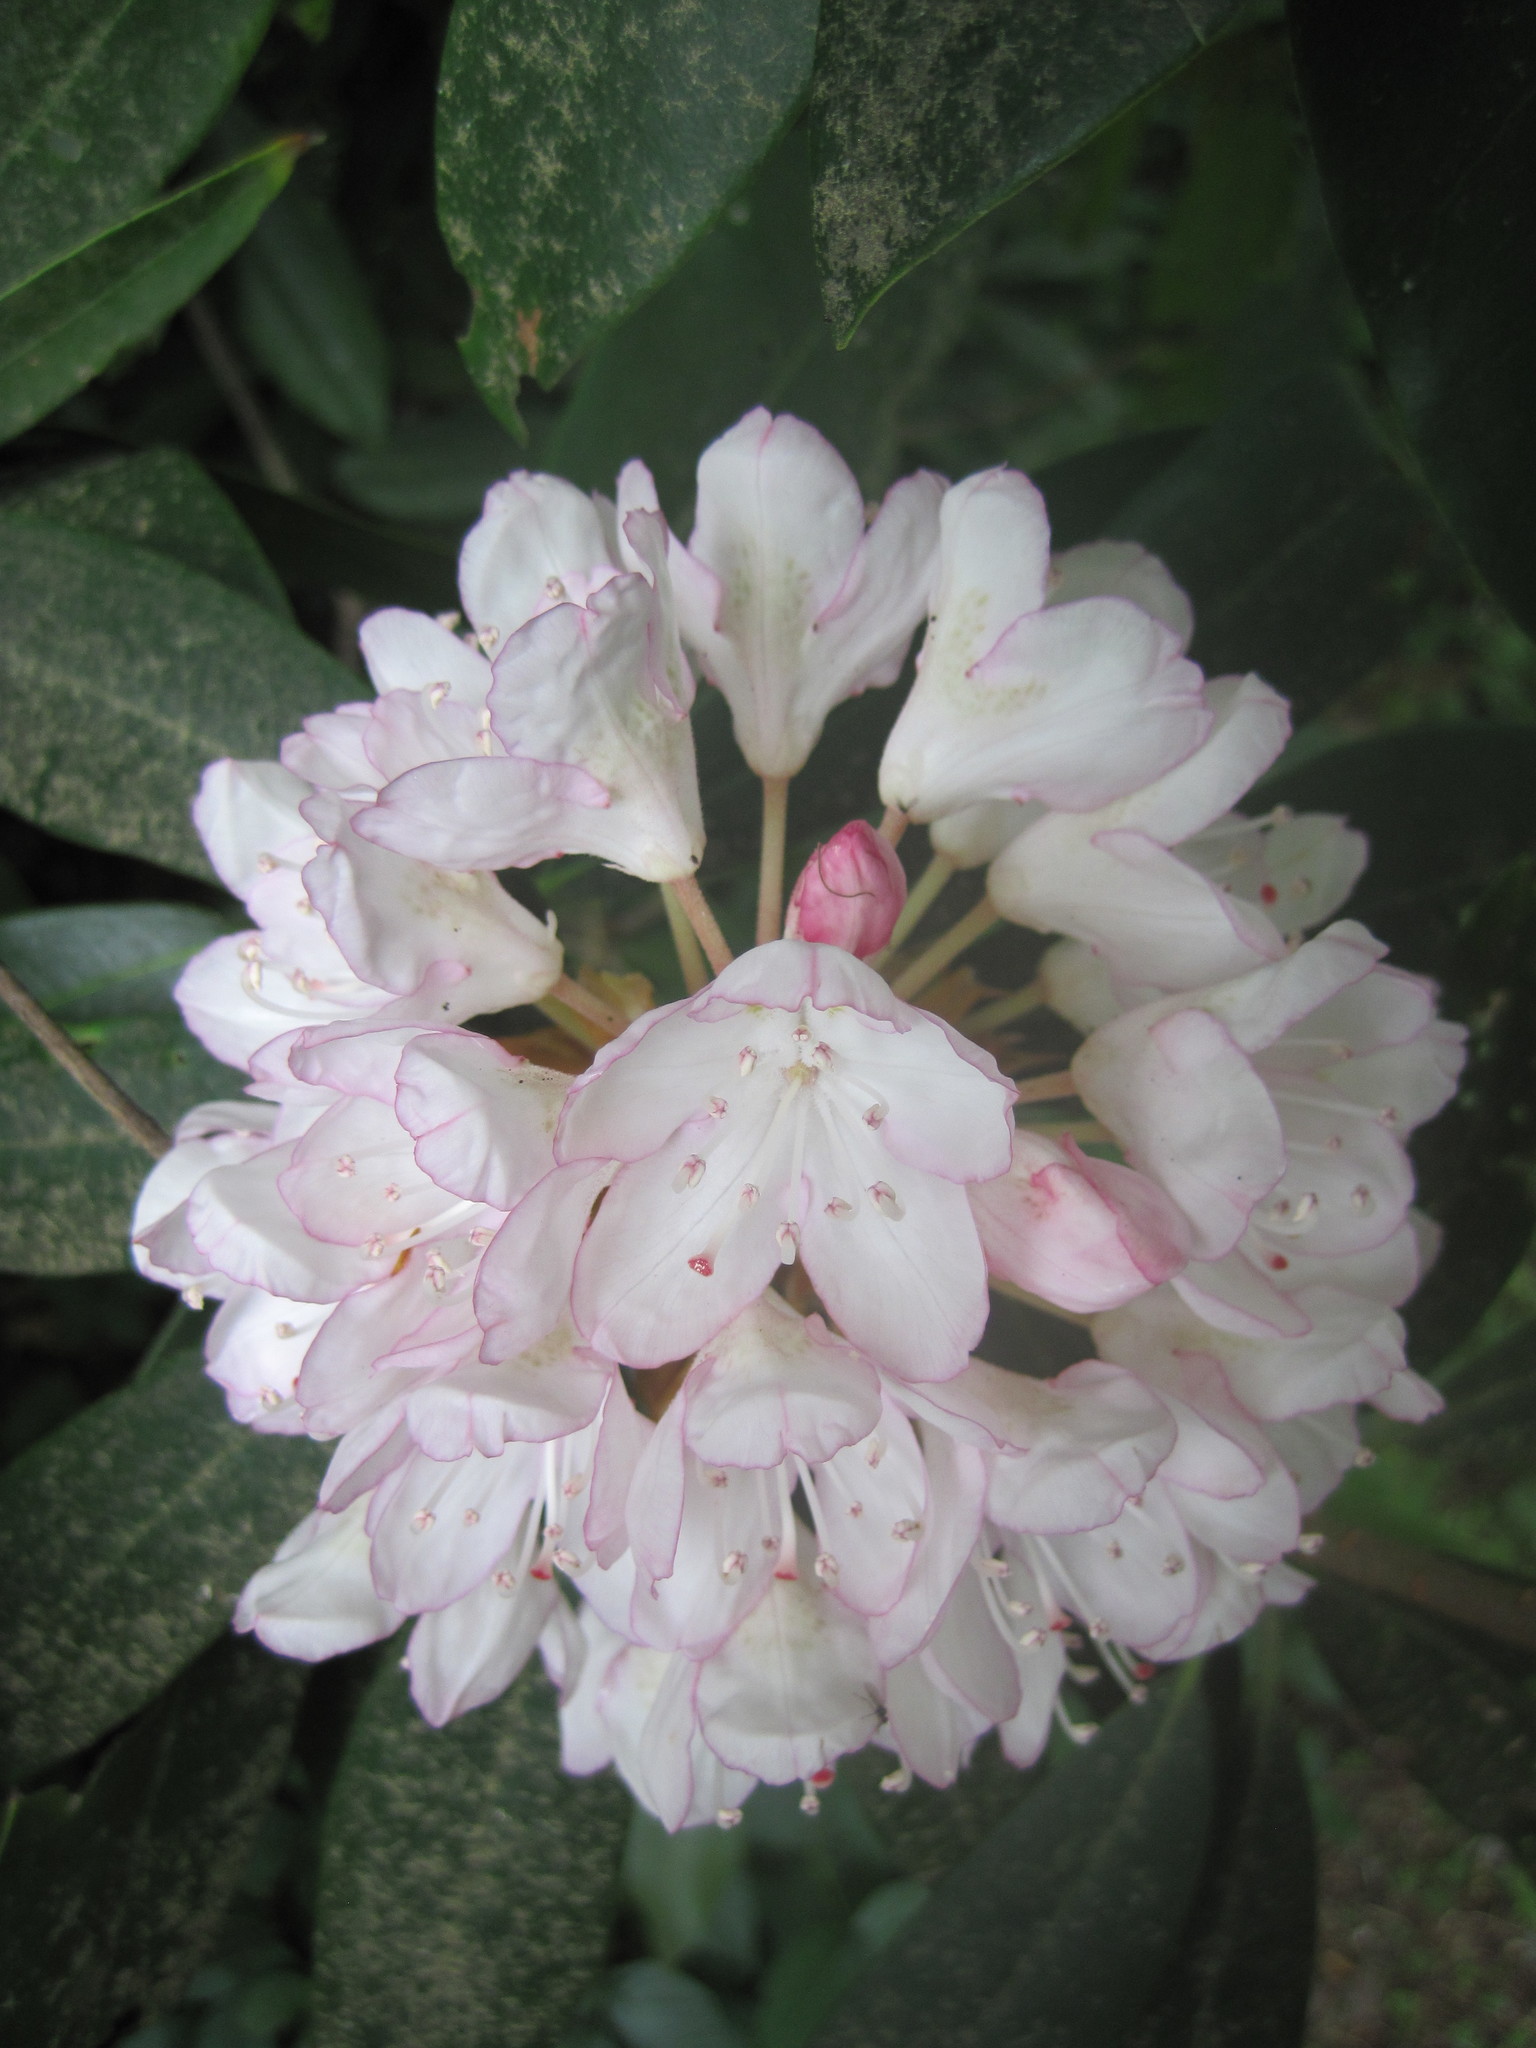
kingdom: Plantae
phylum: Tracheophyta
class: Magnoliopsida
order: Ericales
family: Ericaceae
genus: Rhododendron
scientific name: Rhododendron maximum
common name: Great rhododendron
